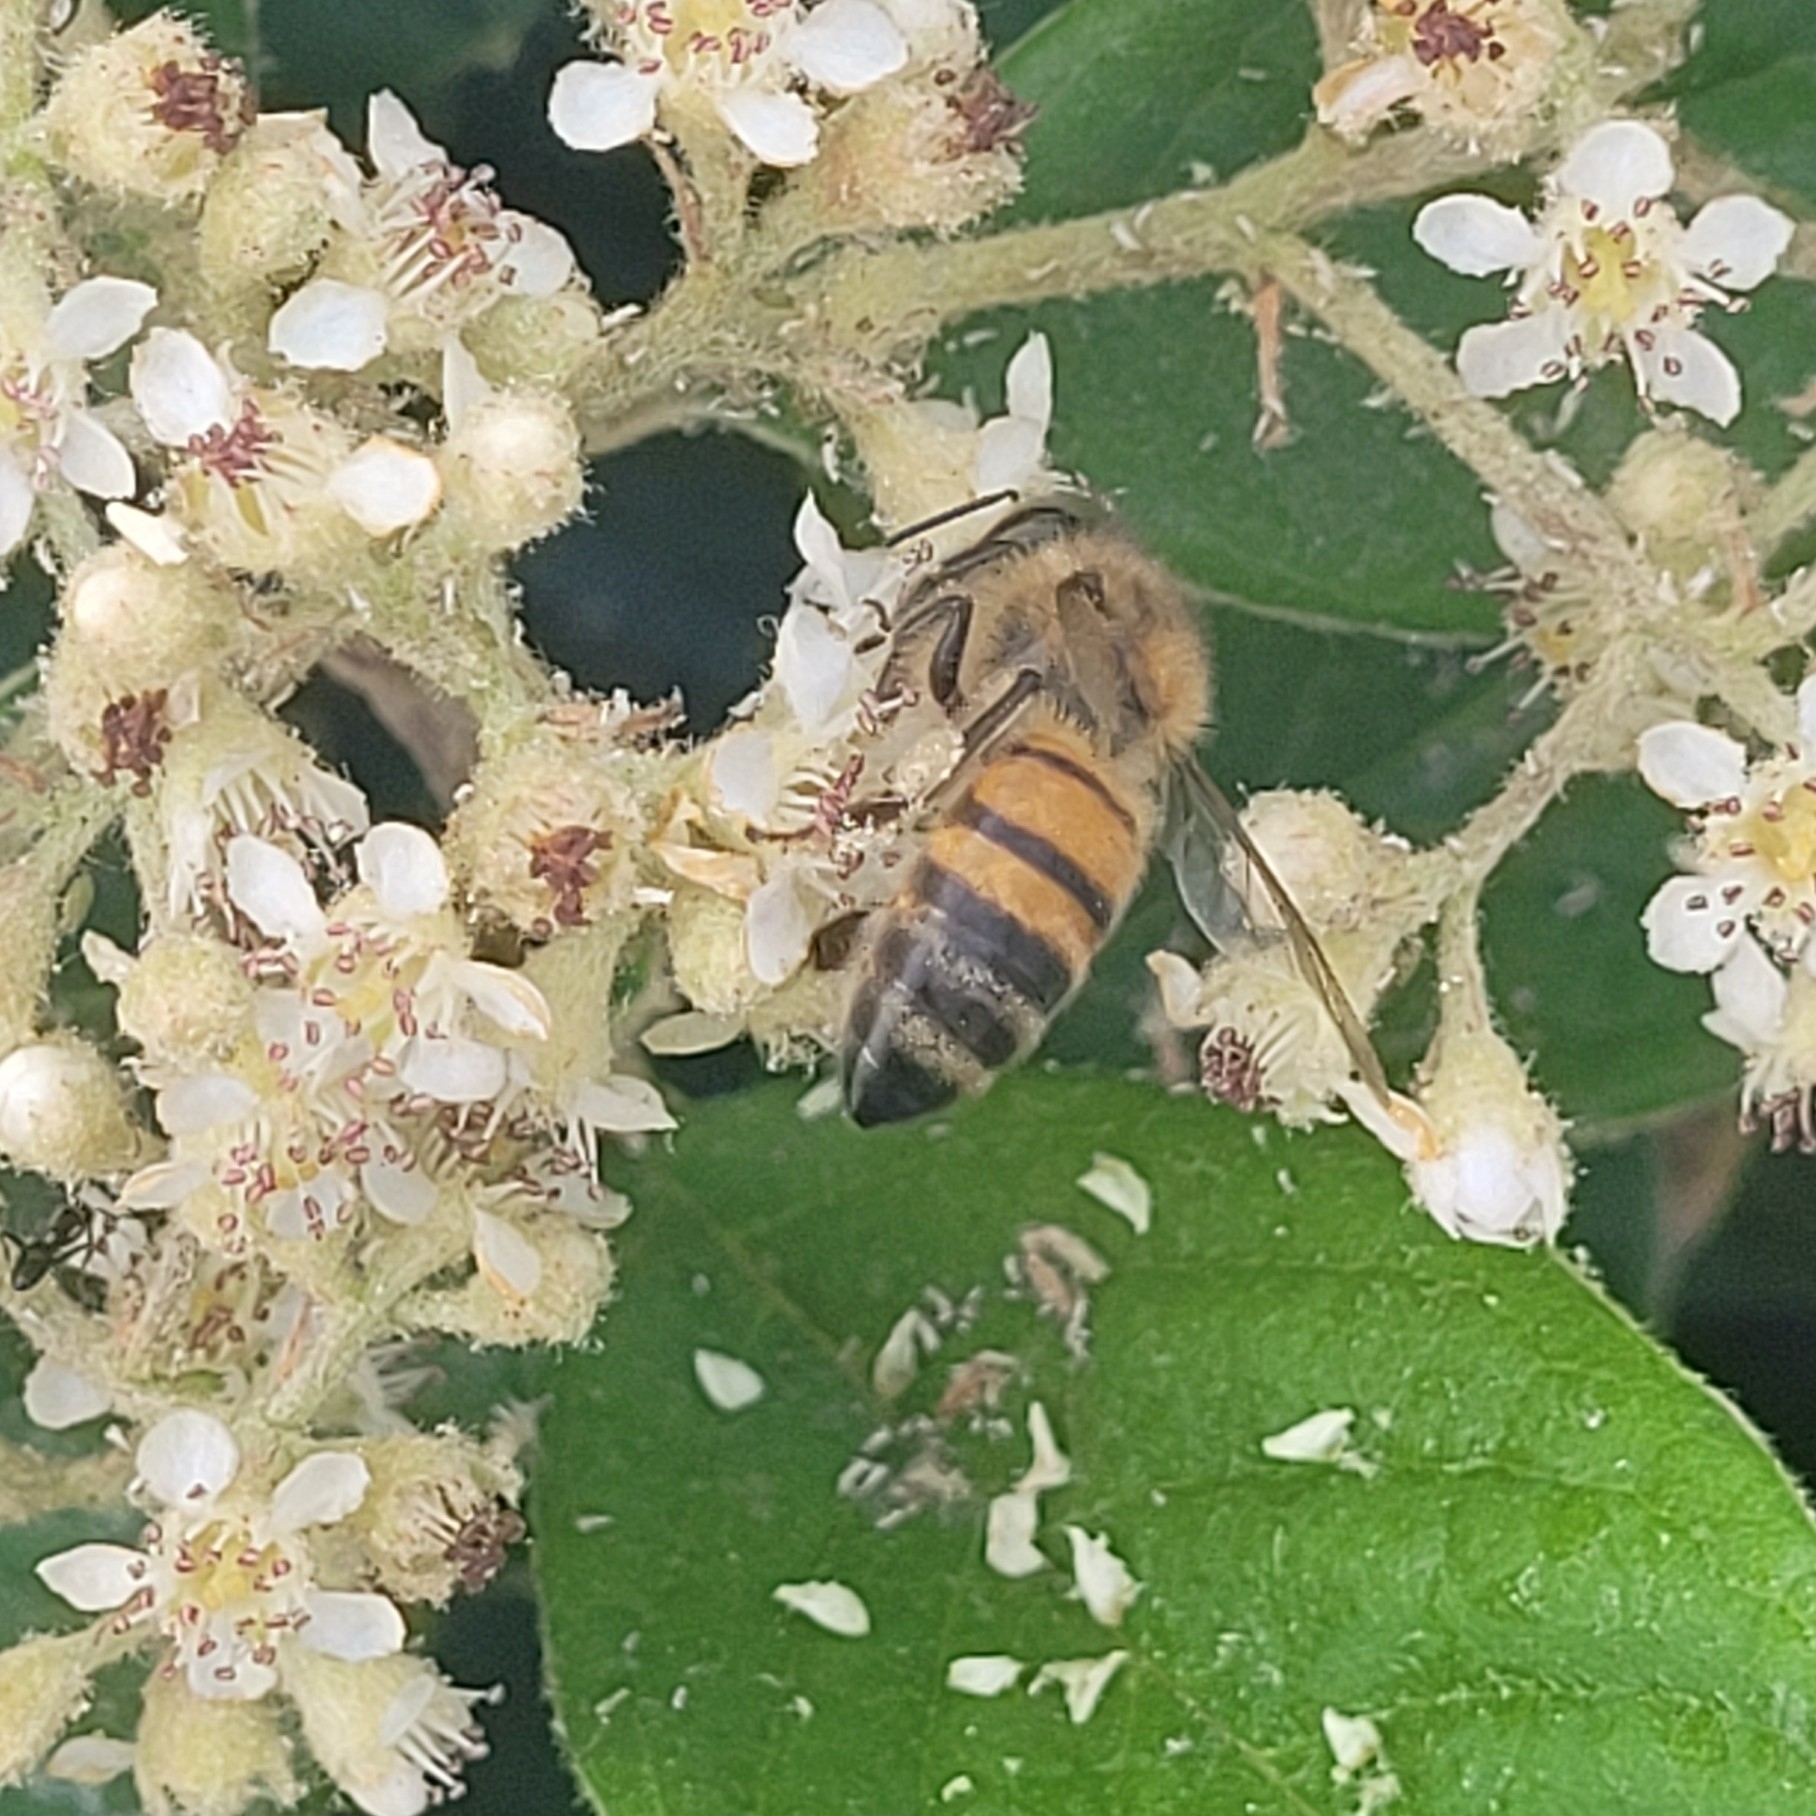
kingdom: Animalia
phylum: Arthropoda
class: Insecta
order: Hymenoptera
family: Apidae
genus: Apis
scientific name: Apis mellifera
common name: Honey bee
